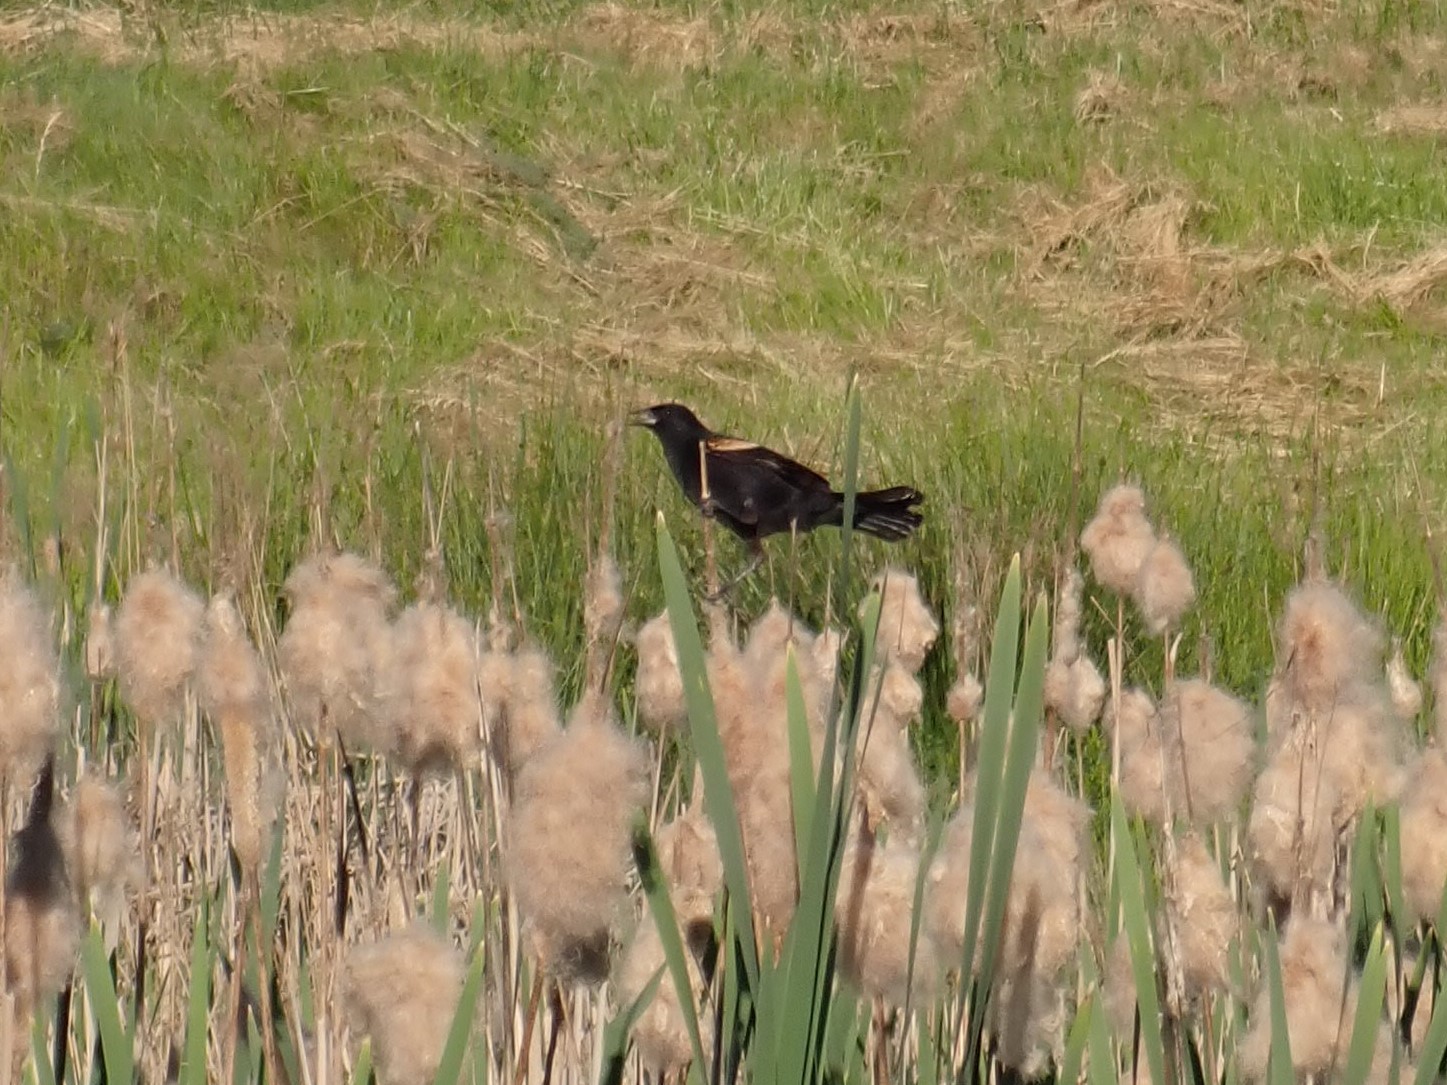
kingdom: Animalia
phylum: Chordata
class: Aves
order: Passeriformes
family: Icteridae
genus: Agelaius
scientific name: Agelaius phoeniceus
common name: Red-winged blackbird
